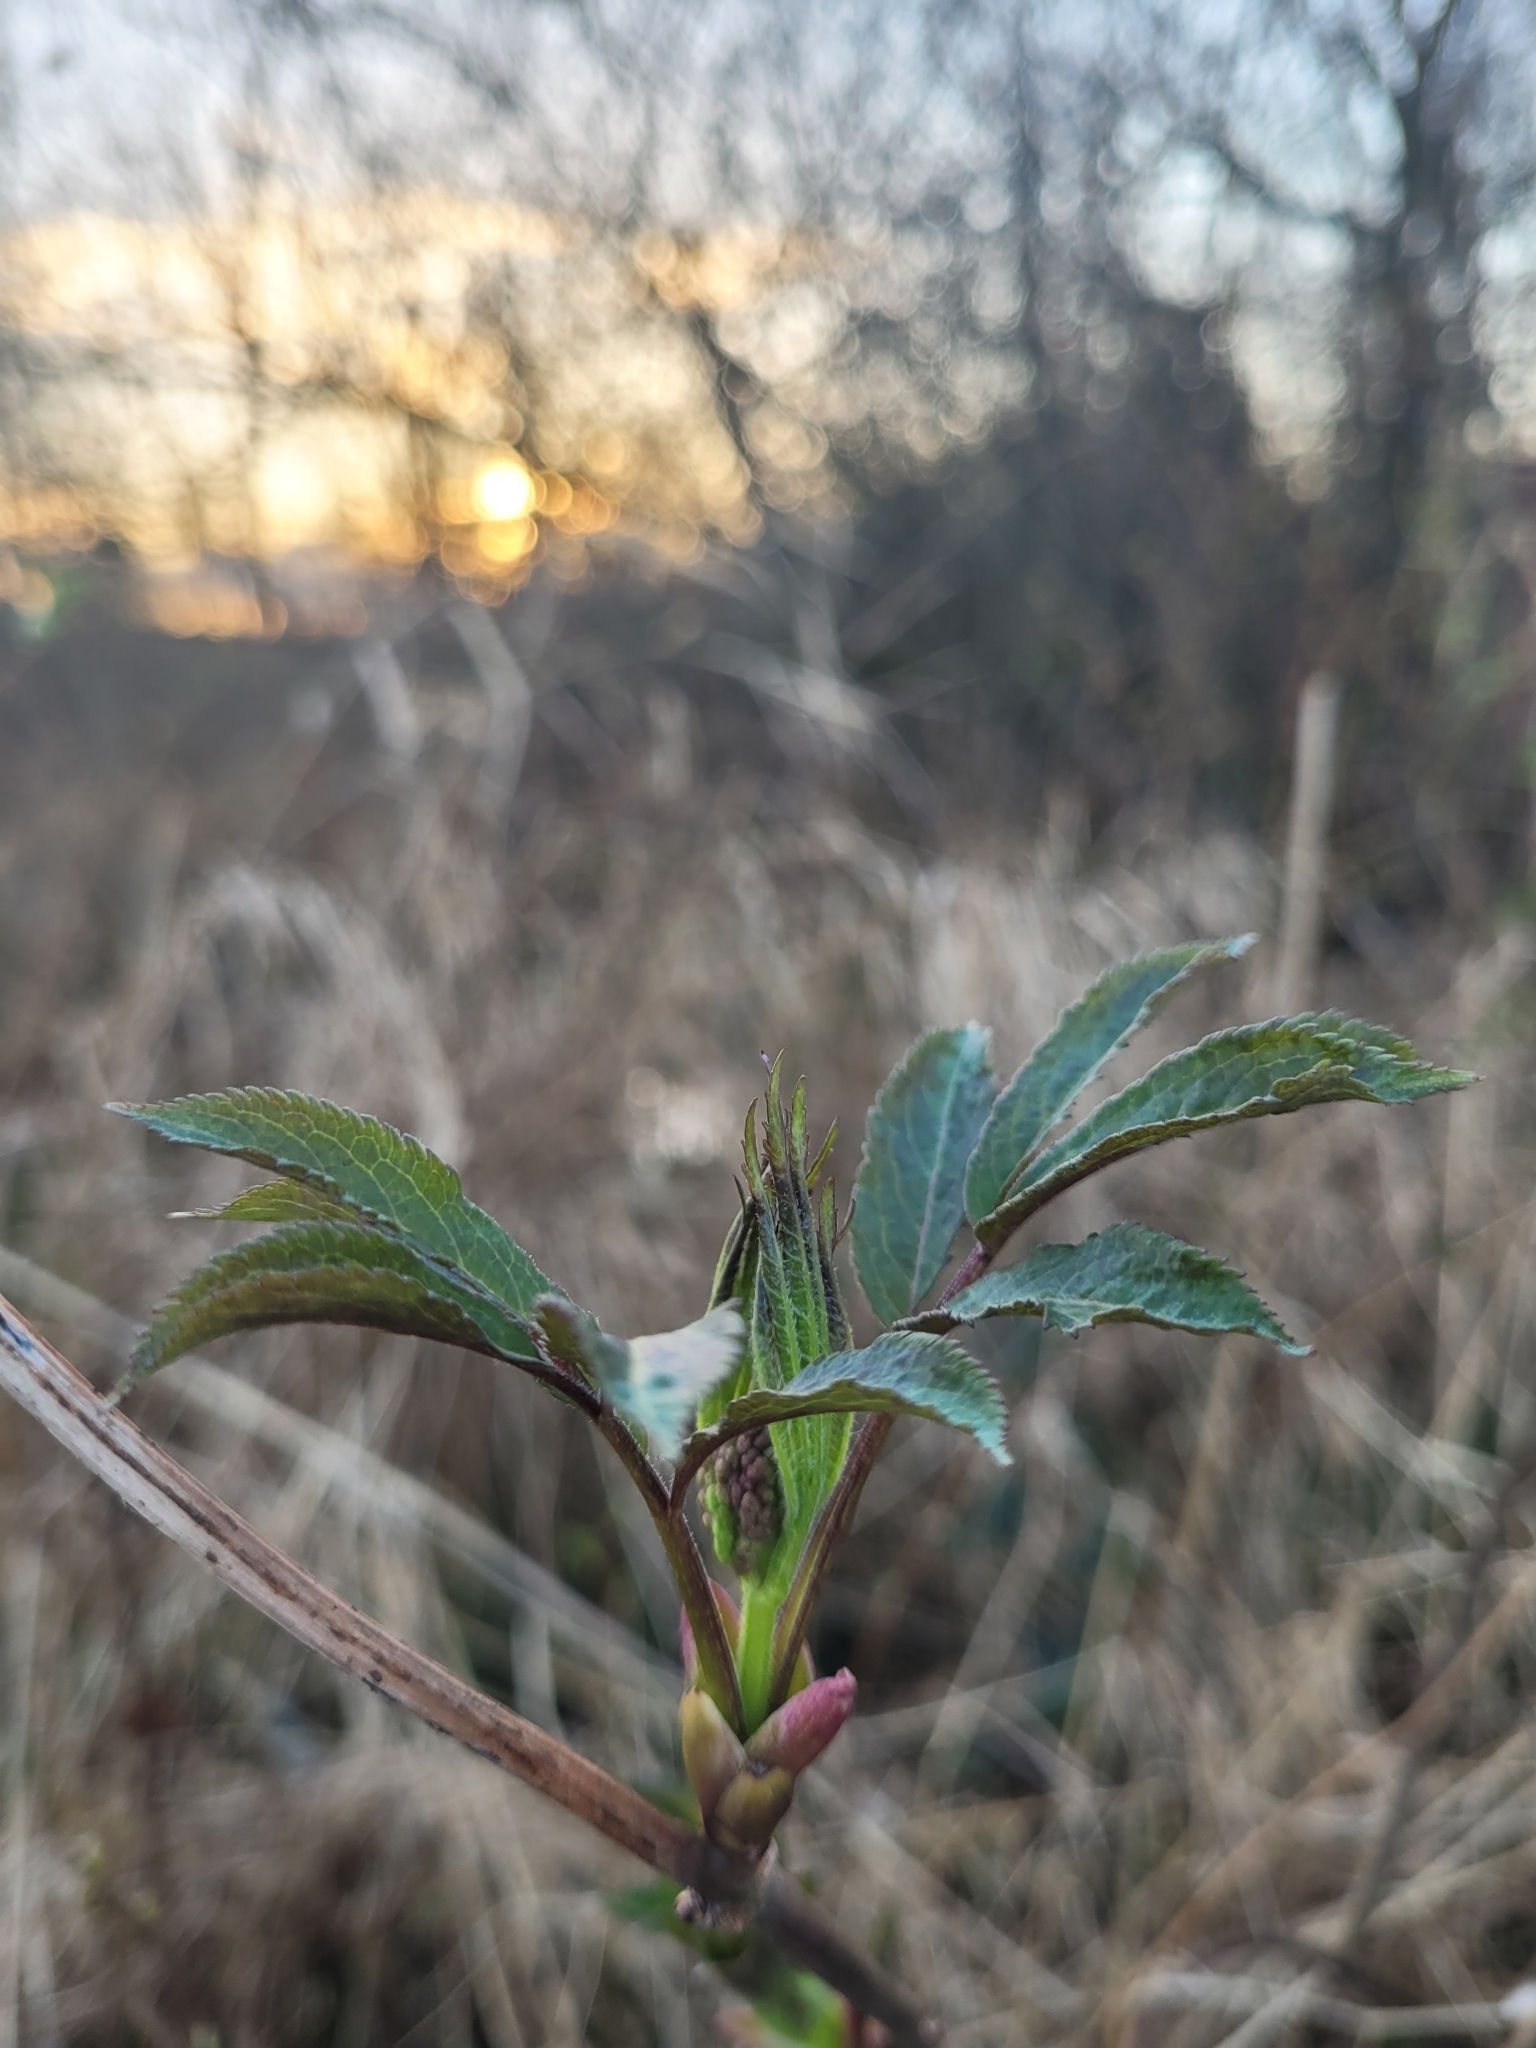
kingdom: Plantae
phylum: Tracheophyta
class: Magnoliopsida
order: Dipsacales
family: Viburnaceae
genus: Sambucus
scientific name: Sambucus racemosa
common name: Red-berried elder
